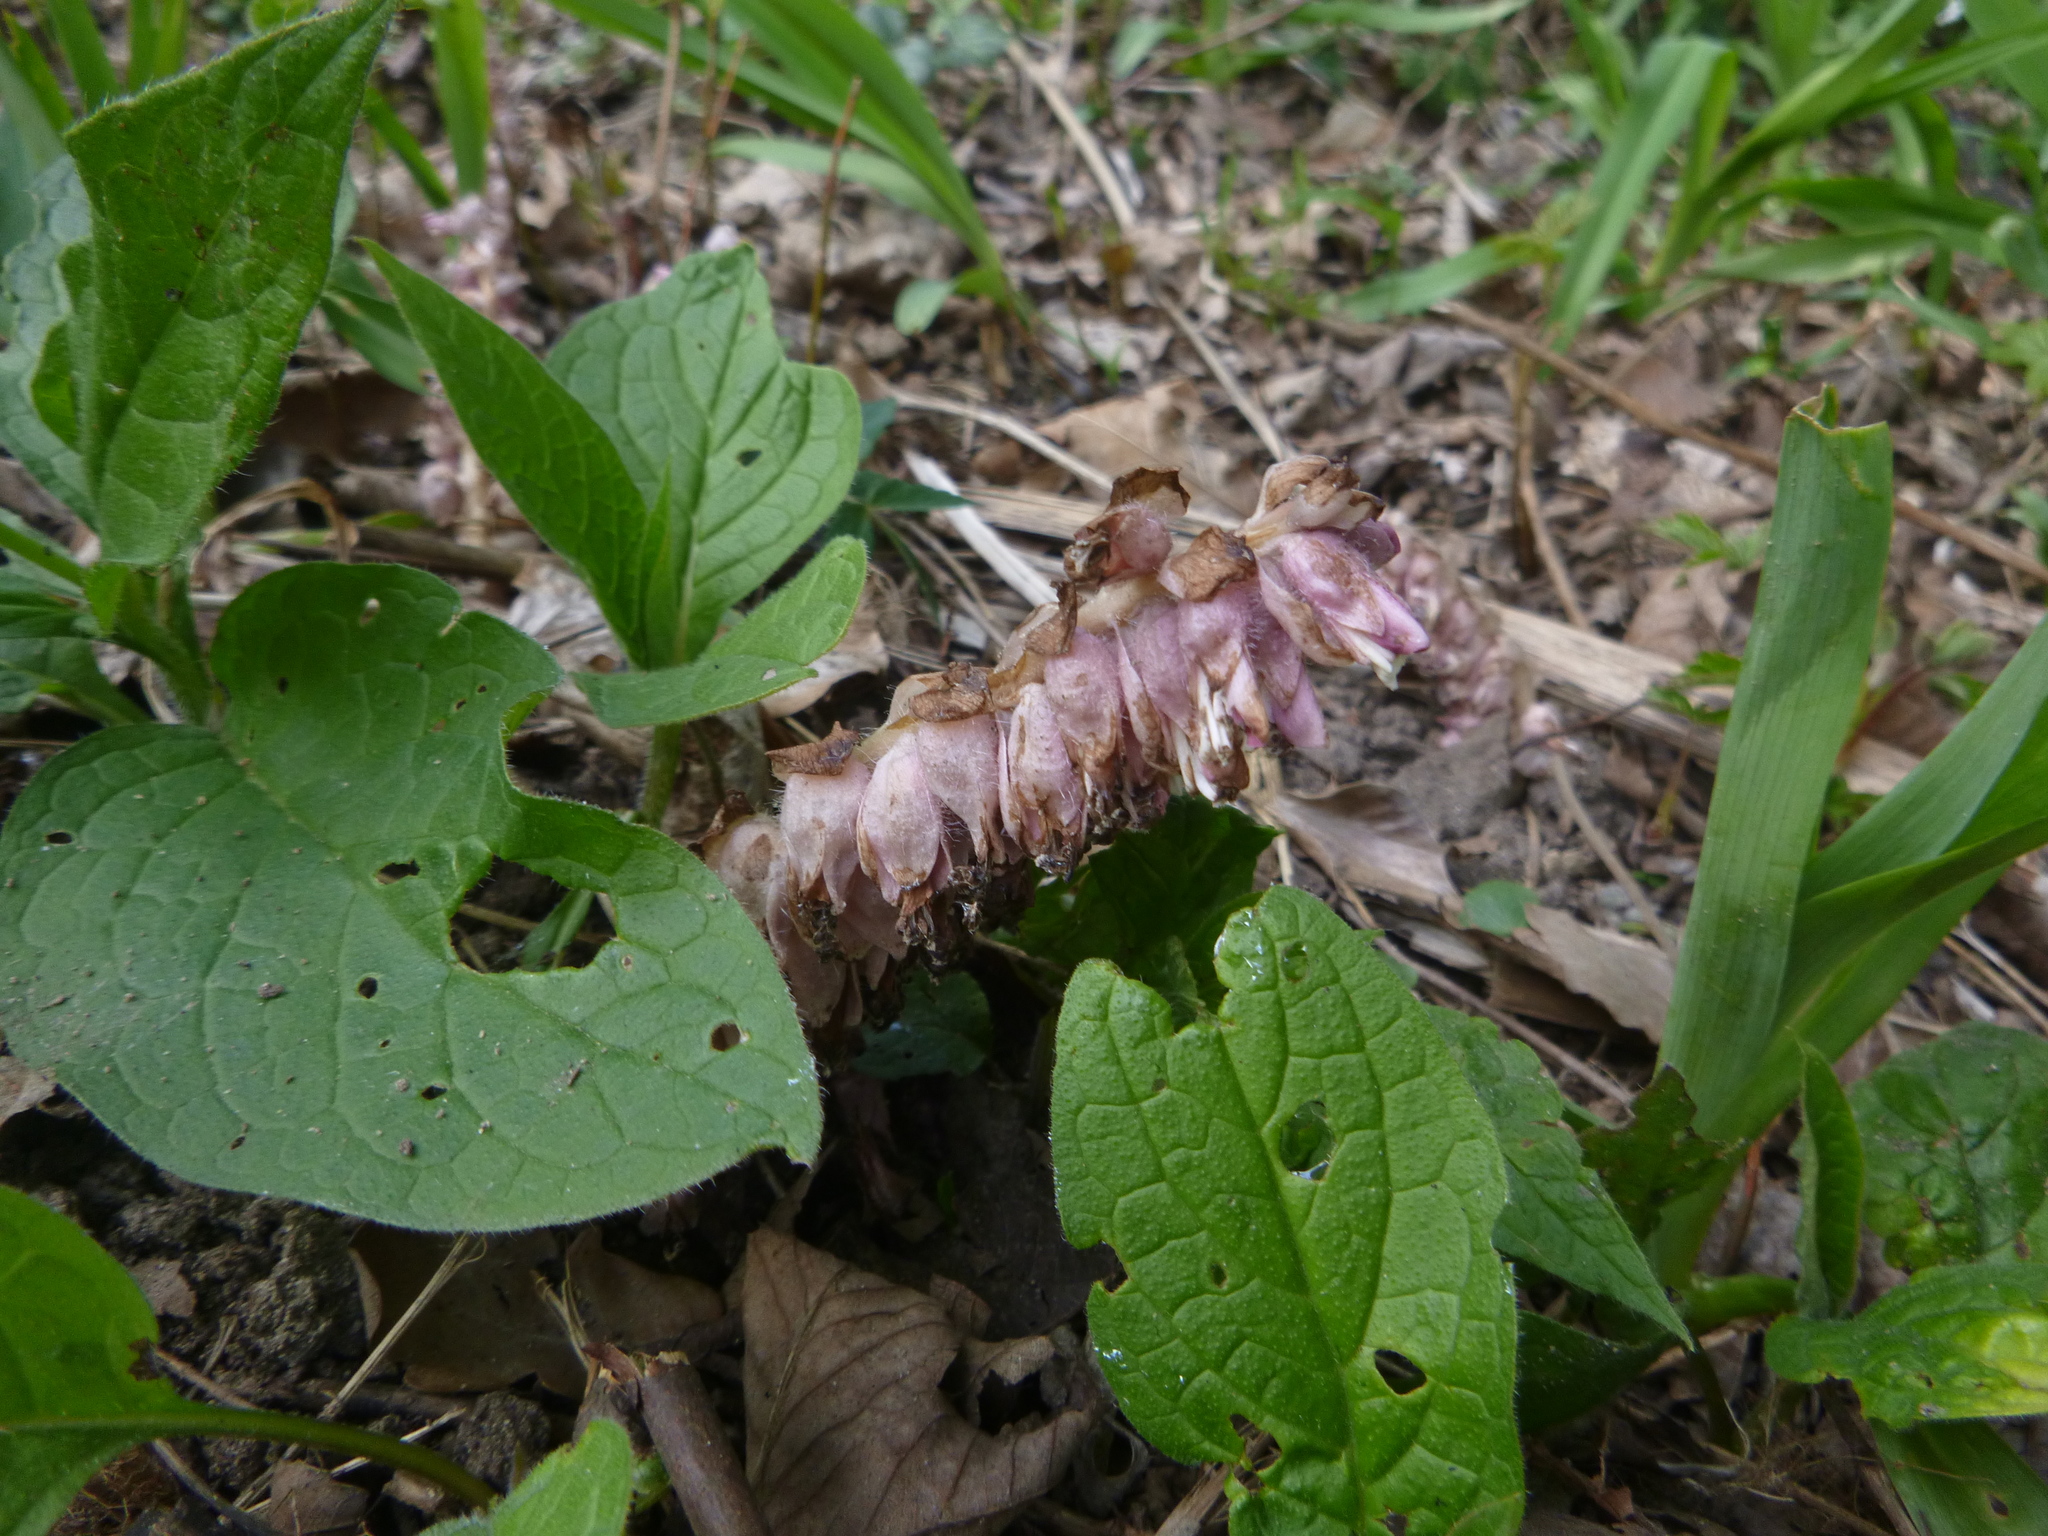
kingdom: Plantae
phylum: Tracheophyta
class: Magnoliopsida
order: Lamiales
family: Orobanchaceae
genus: Lathraea
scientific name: Lathraea squamaria
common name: Toothwort
